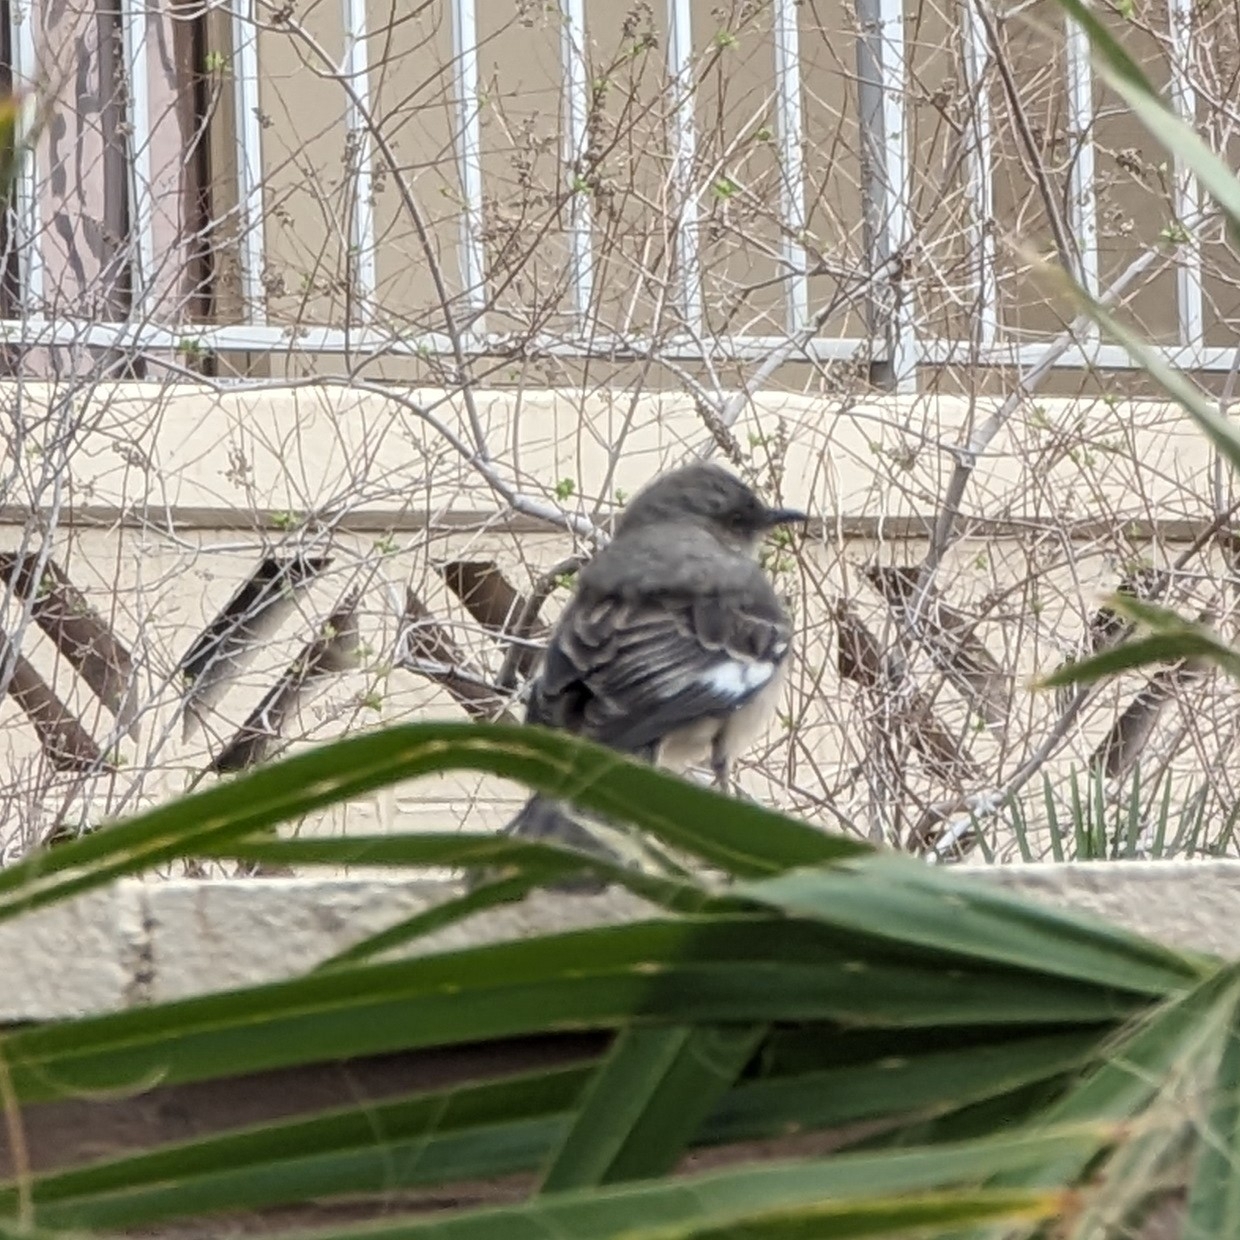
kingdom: Animalia
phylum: Chordata
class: Aves
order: Passeriformes
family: Mimidae
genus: Mimus
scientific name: Mimus polyglottos
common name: Northern mockingbird
